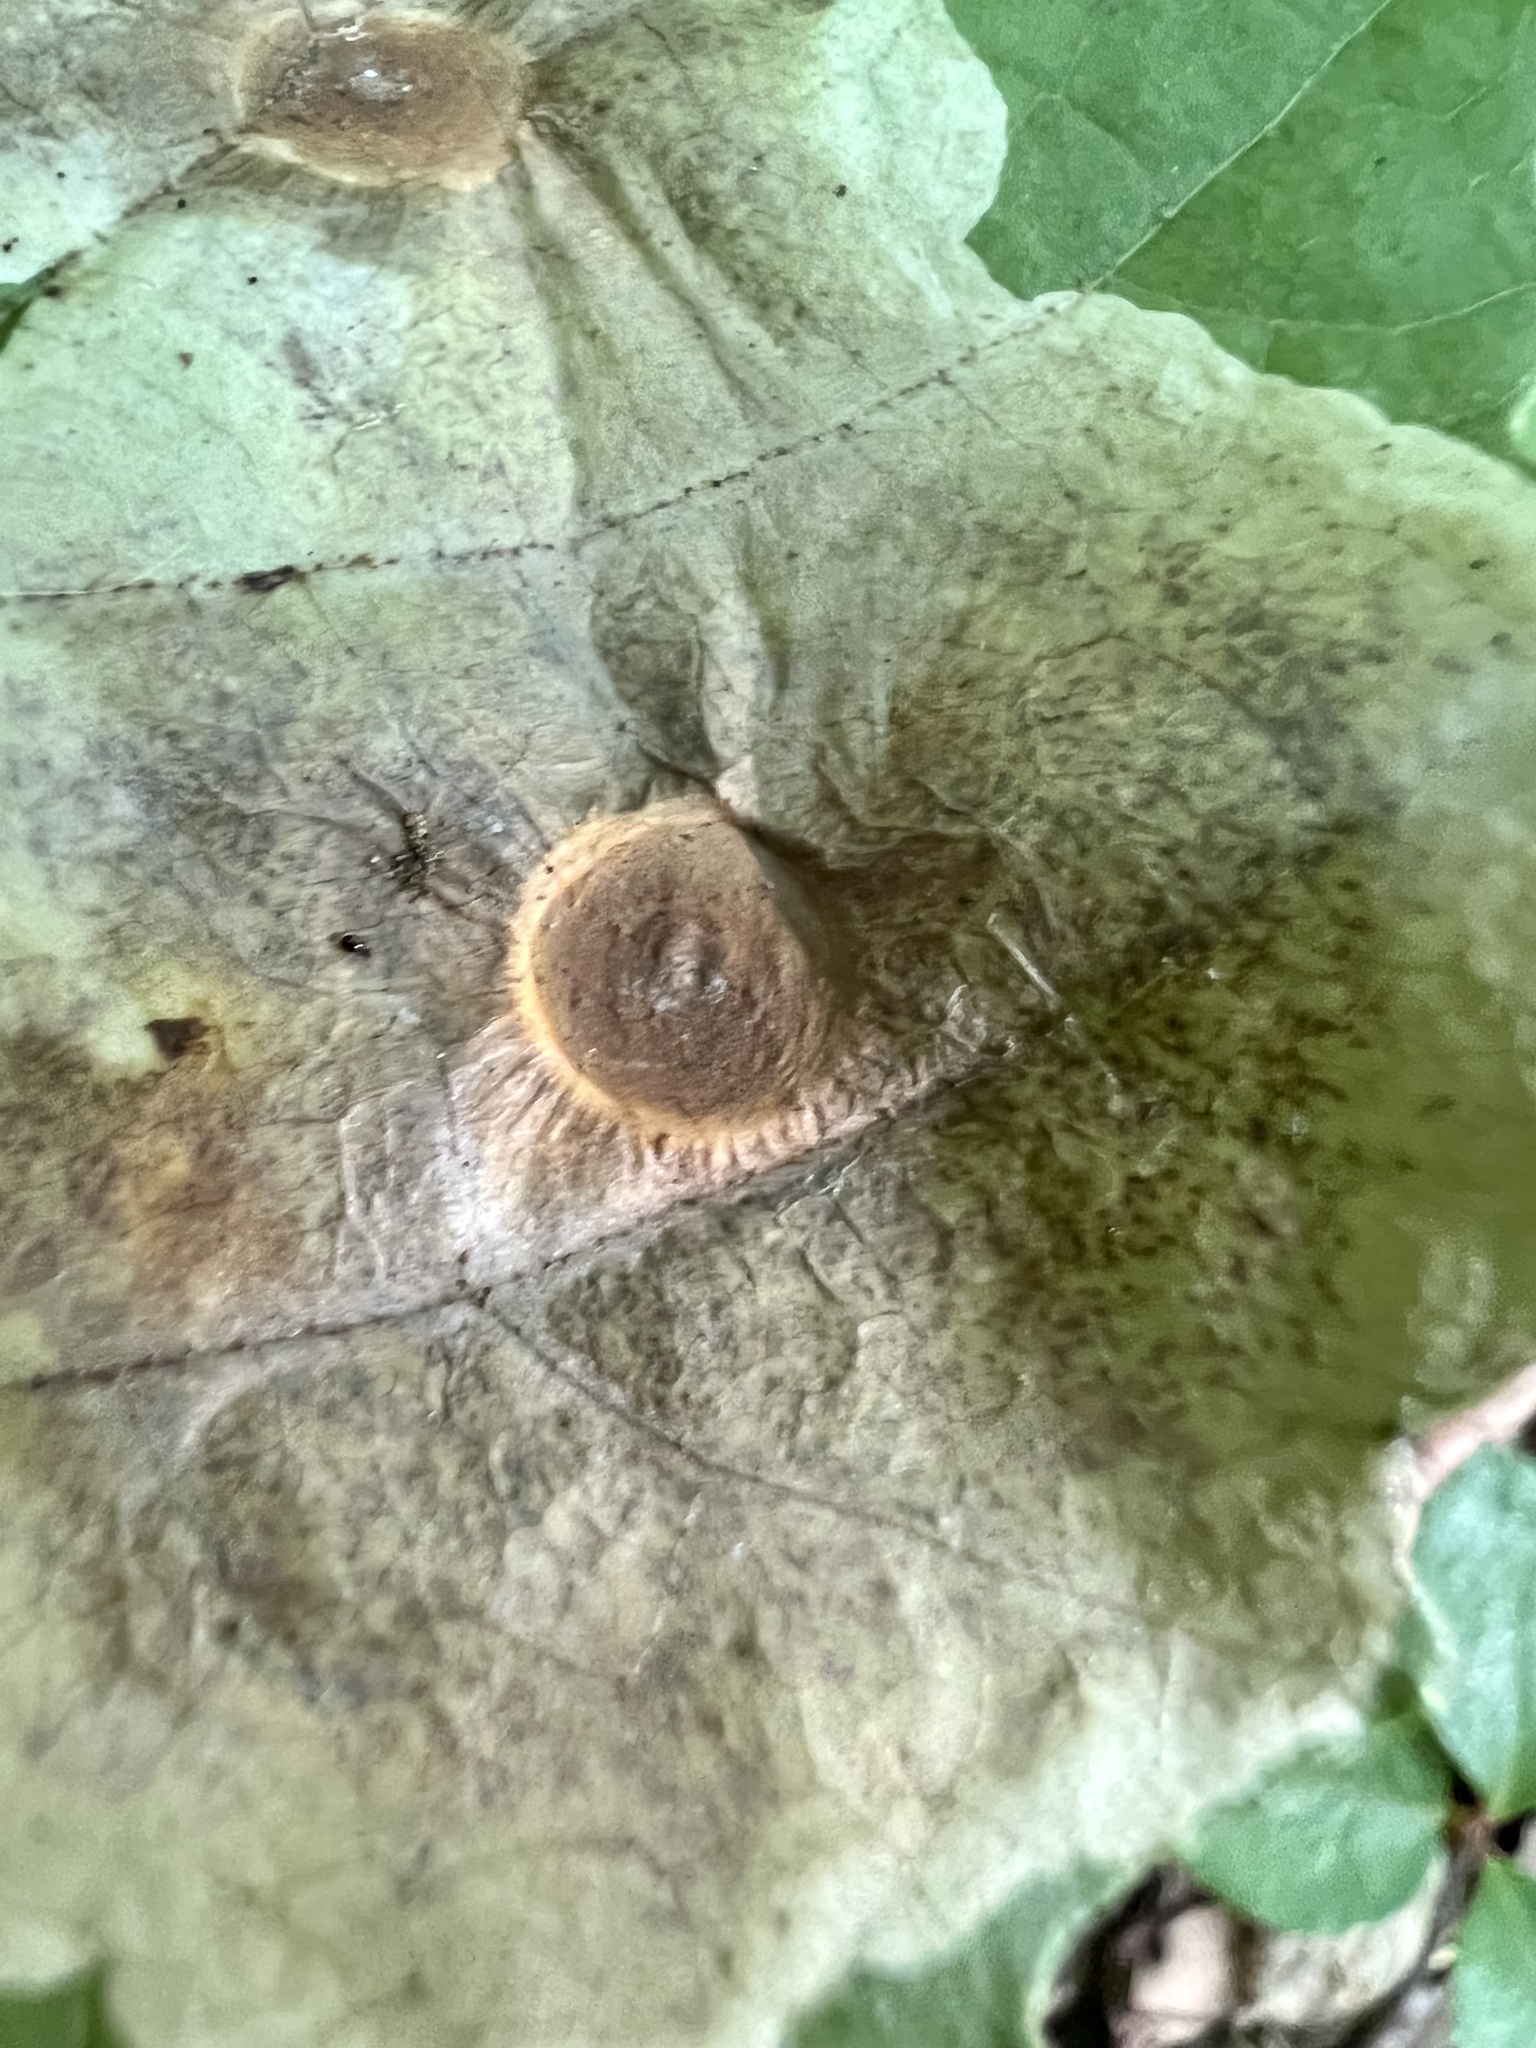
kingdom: Animalia
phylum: Arthropoda
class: Insecta
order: Lepidoptera
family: Gracillariidae
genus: Cameraria
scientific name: Cameraria hamameliella
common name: Witchhazel leafminer
